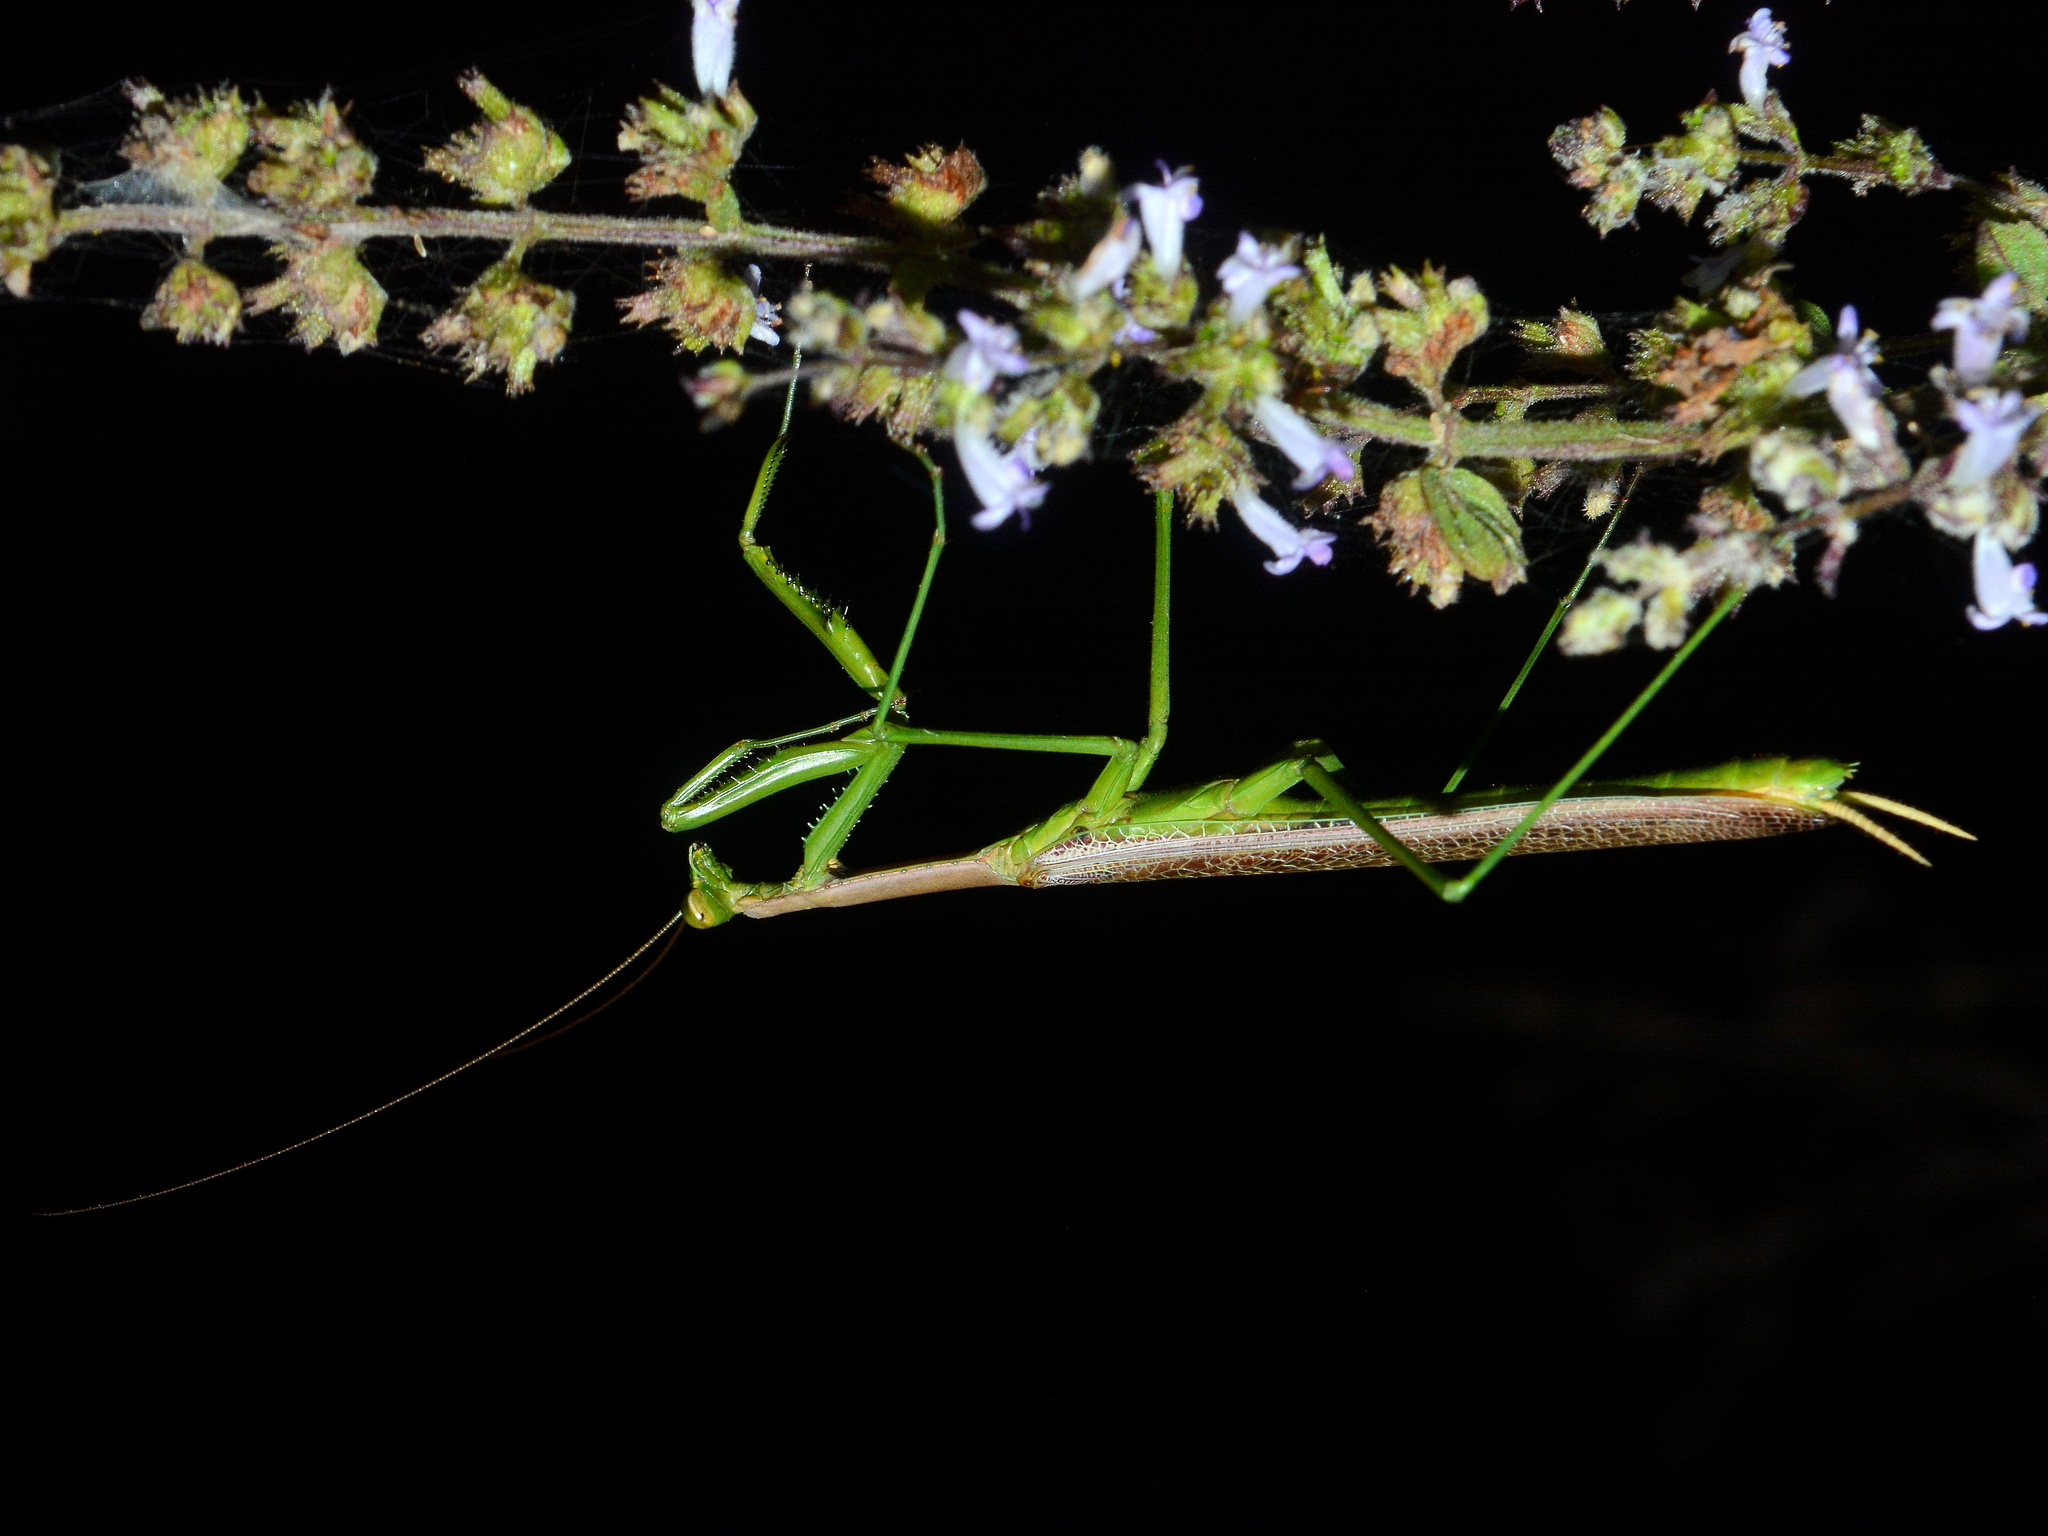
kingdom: Animalia
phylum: Arthropoda
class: Insecta
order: Mantodea
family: Coptopterygidae
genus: Coptopteryx
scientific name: Coptopteryx gayi
